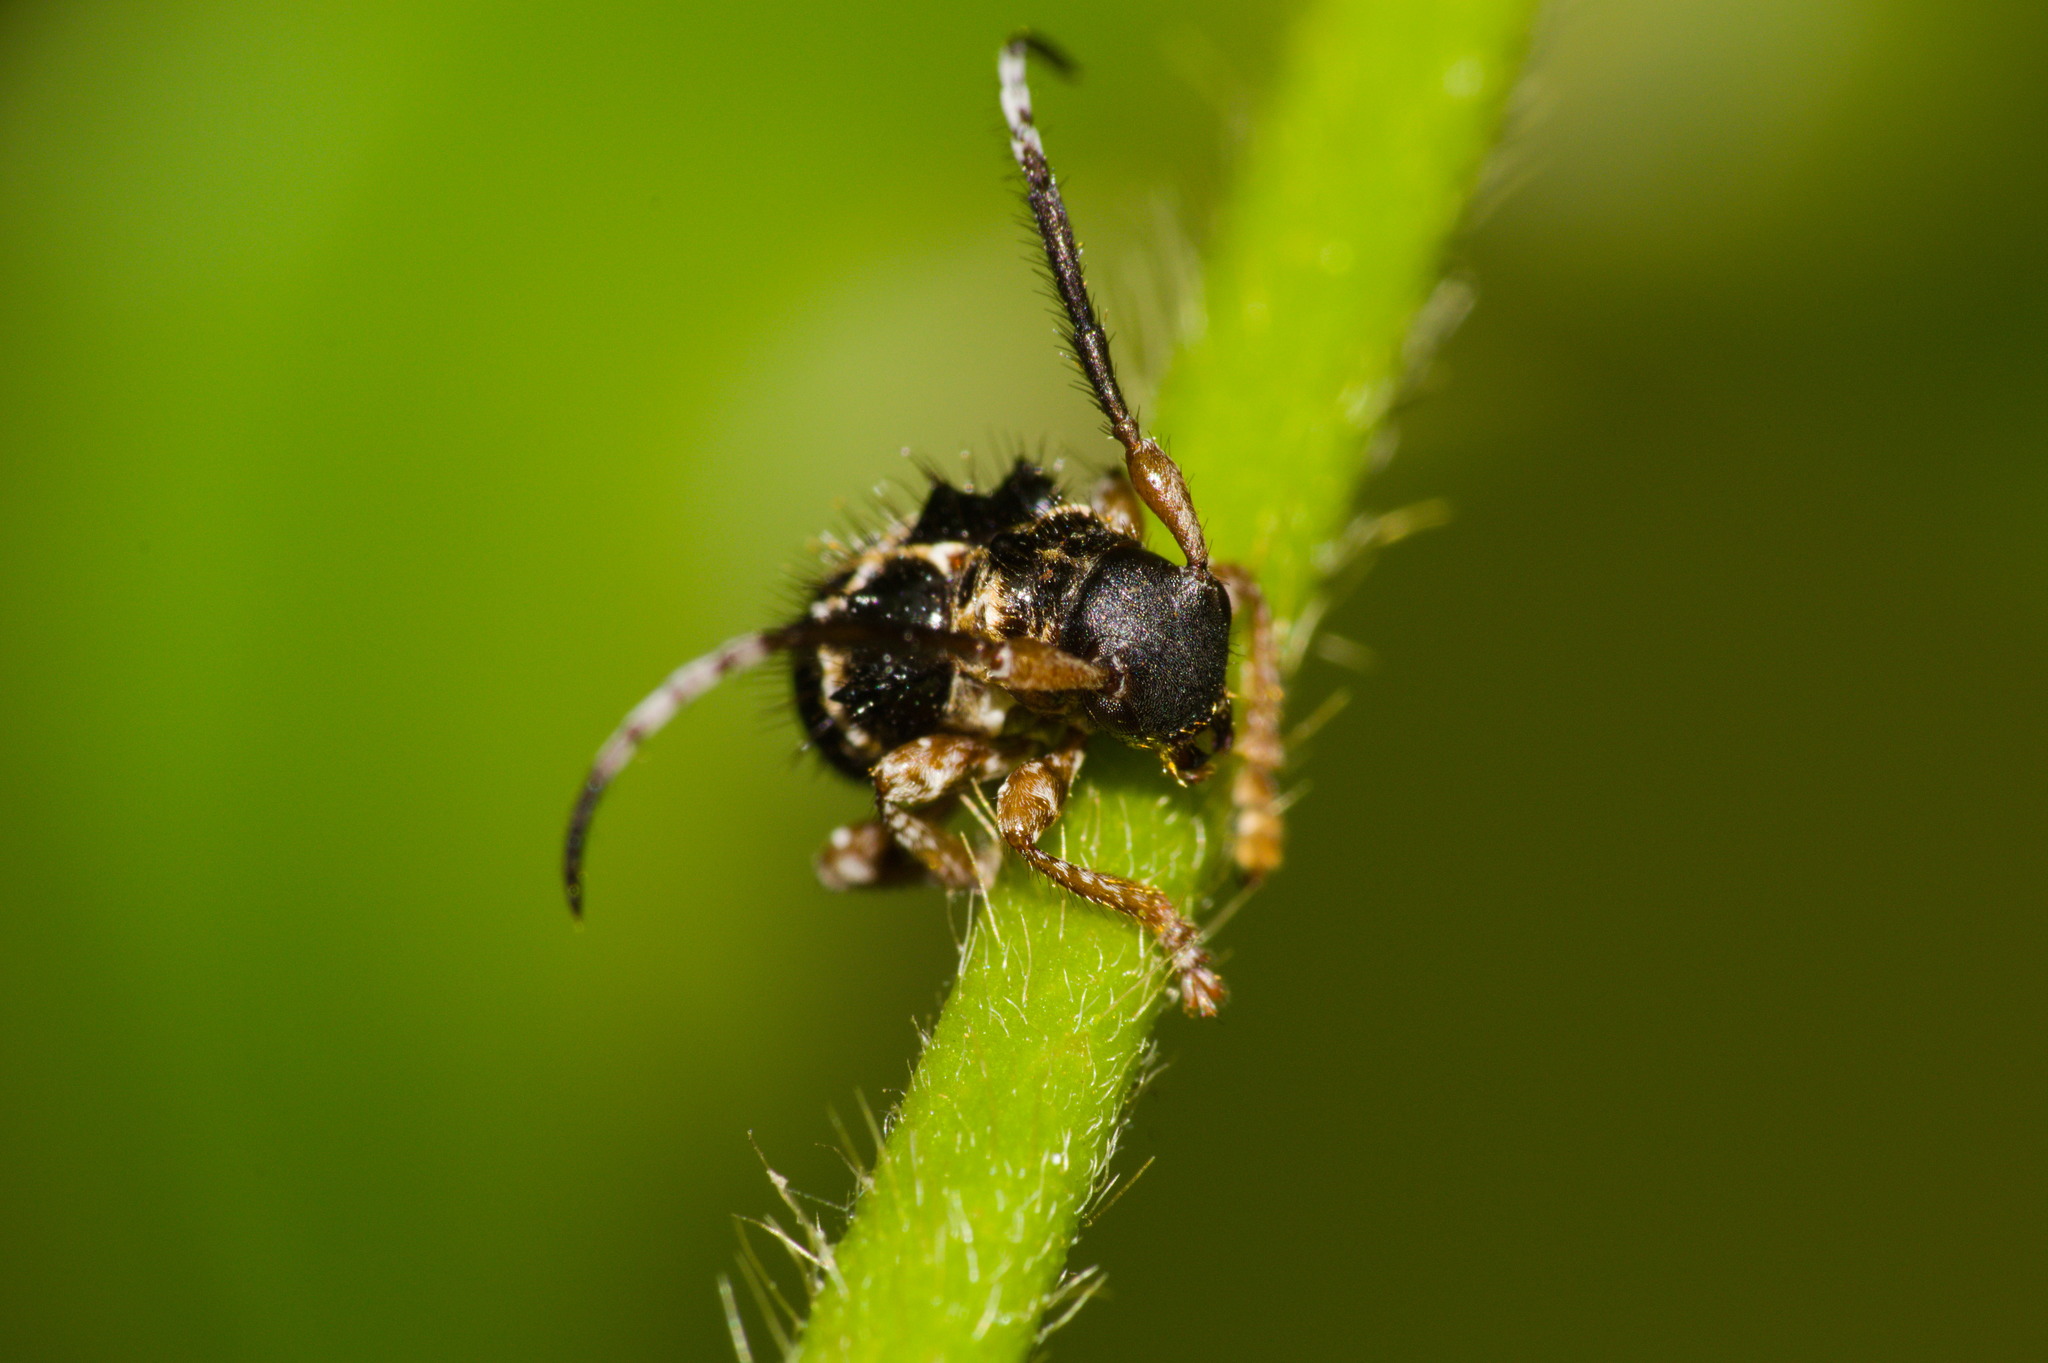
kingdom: Animalia
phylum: Arthropoda
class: Insecta
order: Coleoptera
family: Cerambycidae
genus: Tessarecphora
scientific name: Tessarecphora arachnoides
